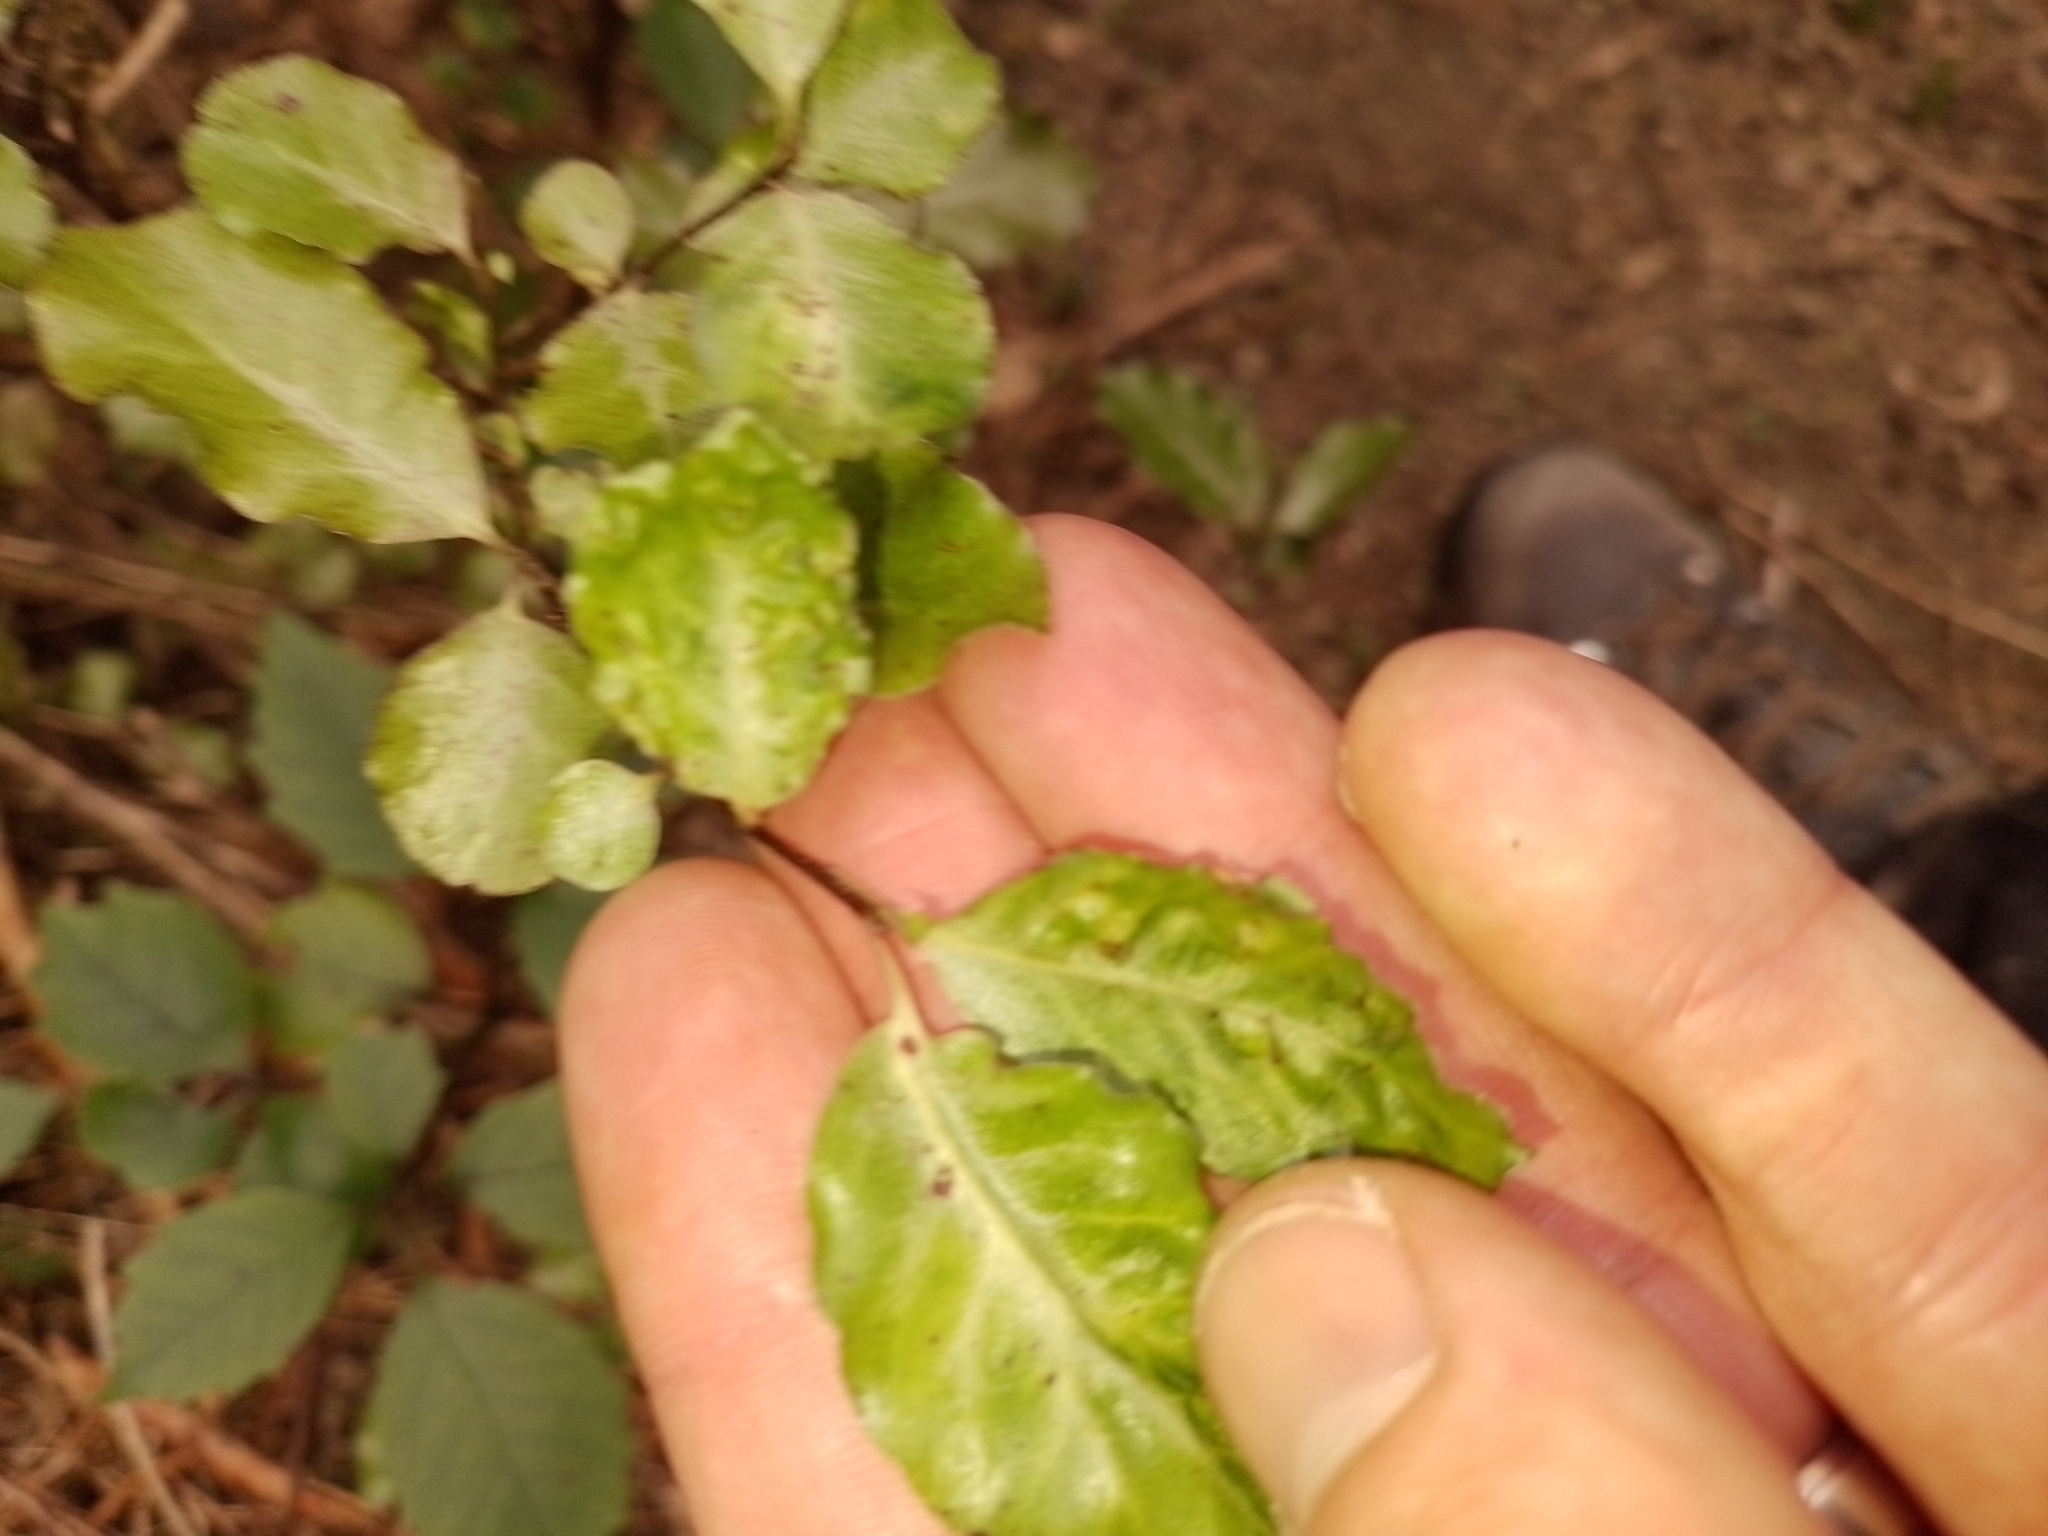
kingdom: Plantae
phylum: Tracheophyta
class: Magnoliopsida
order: Apiales
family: Pittosporaceae
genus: Pittosporum
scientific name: Pittosporum tenuifolium
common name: Kohuhu
